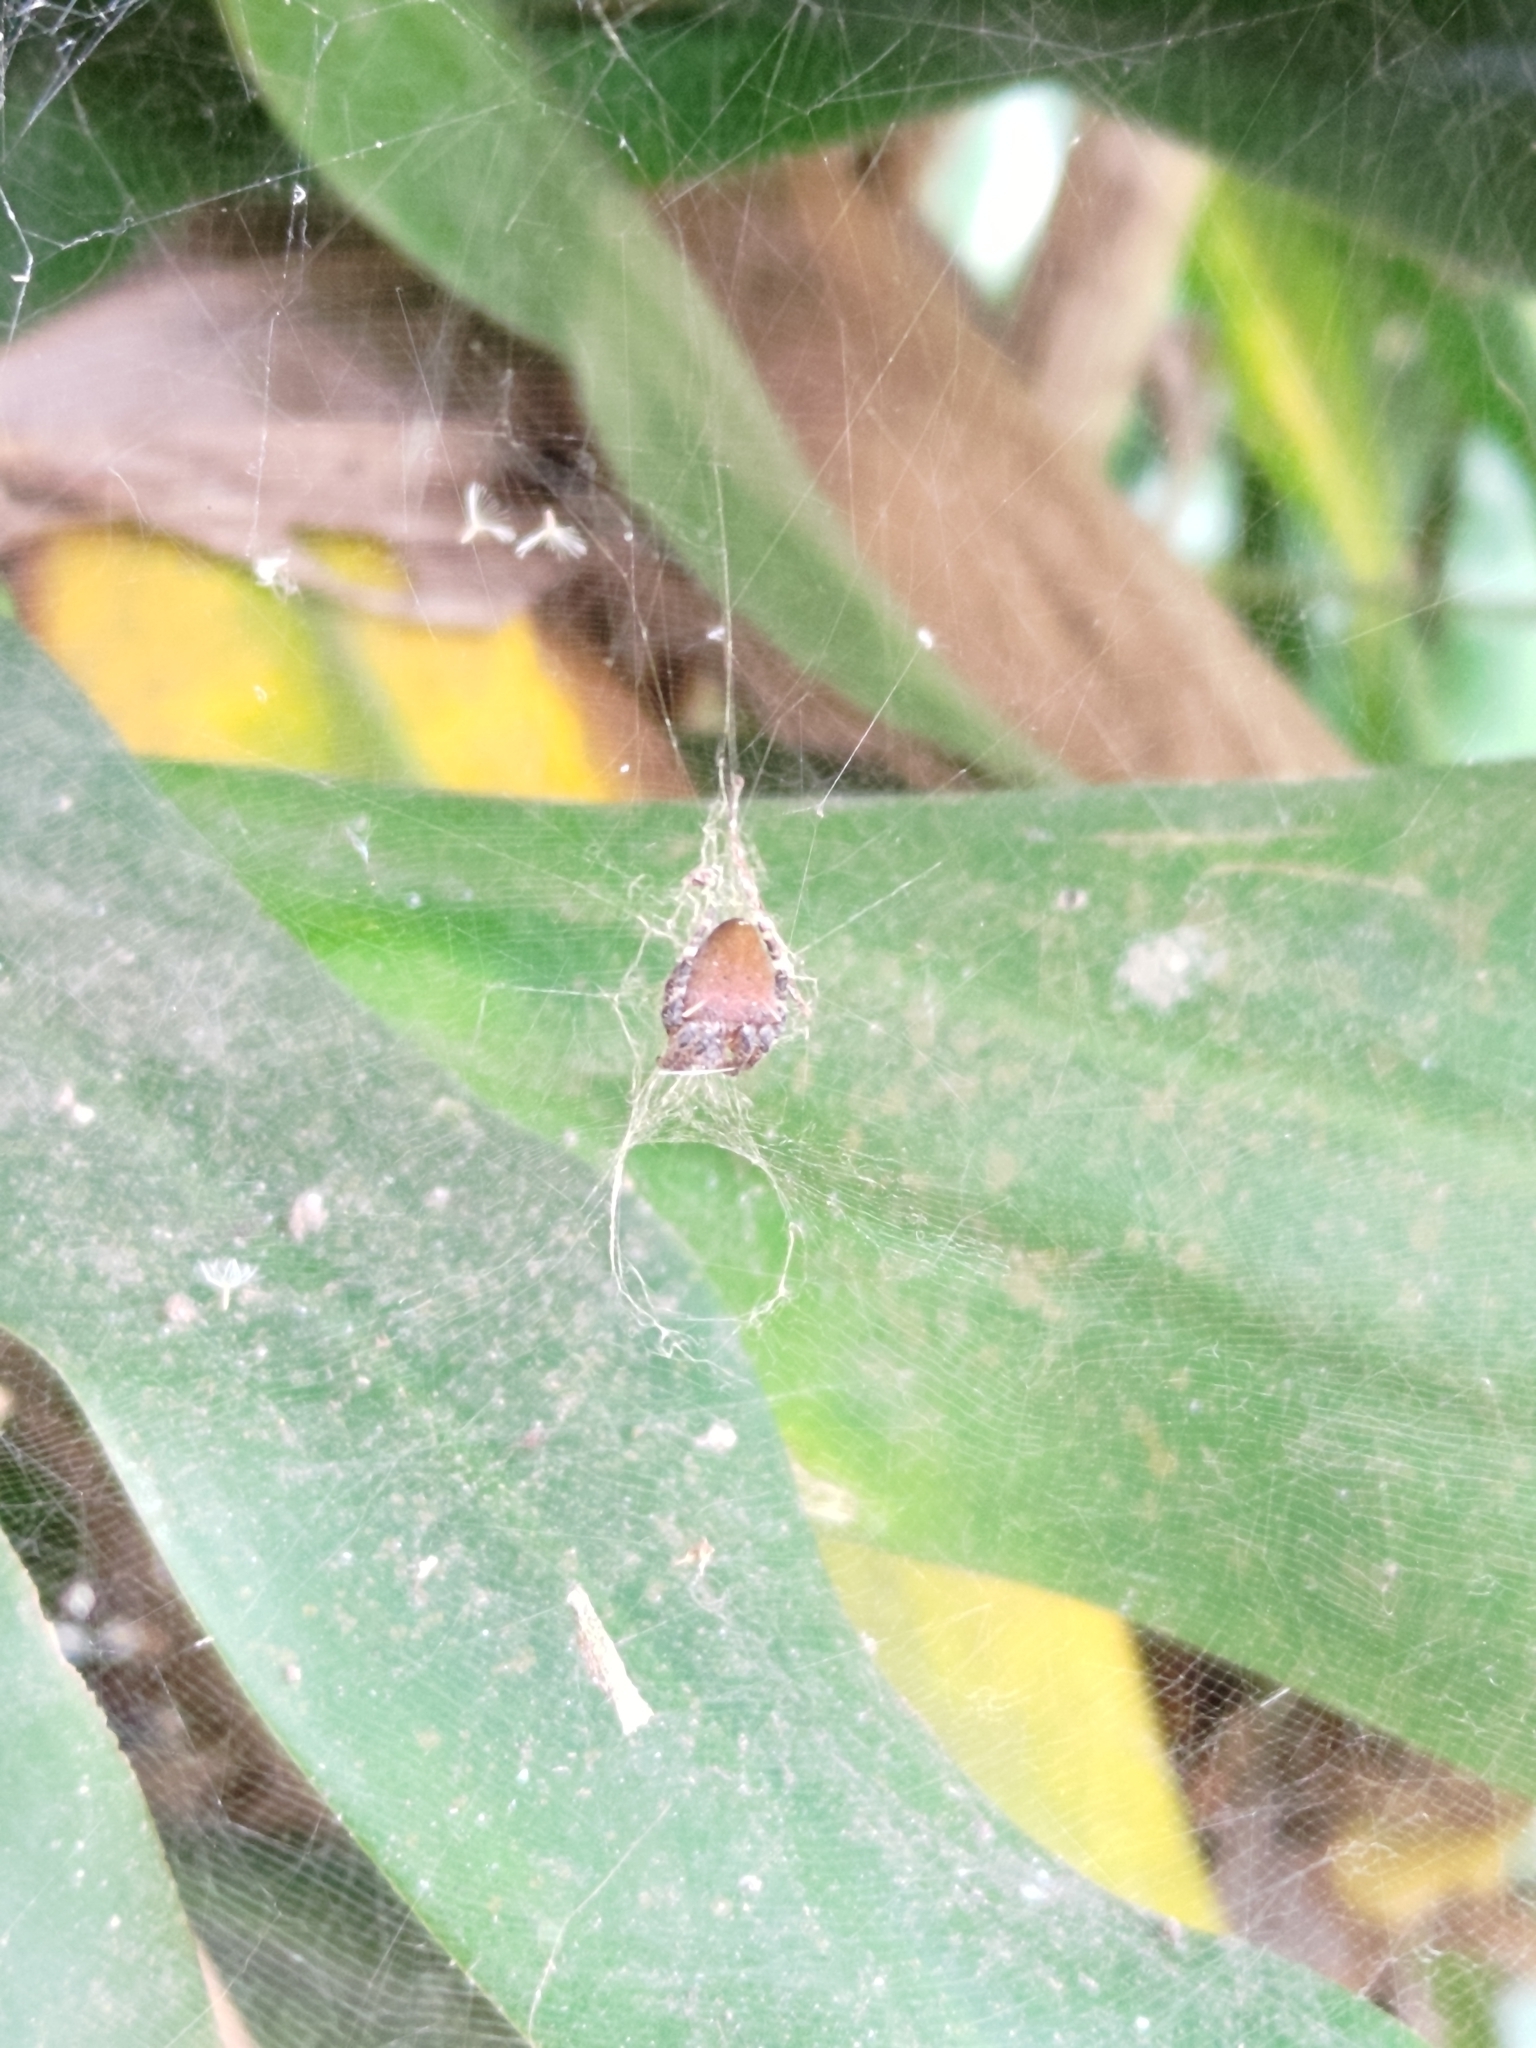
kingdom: Animalia
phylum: Arthropoda
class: Arachnida
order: Araneae
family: Araneidae
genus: Cyrtophora
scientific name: Cyrtophora unicolor
